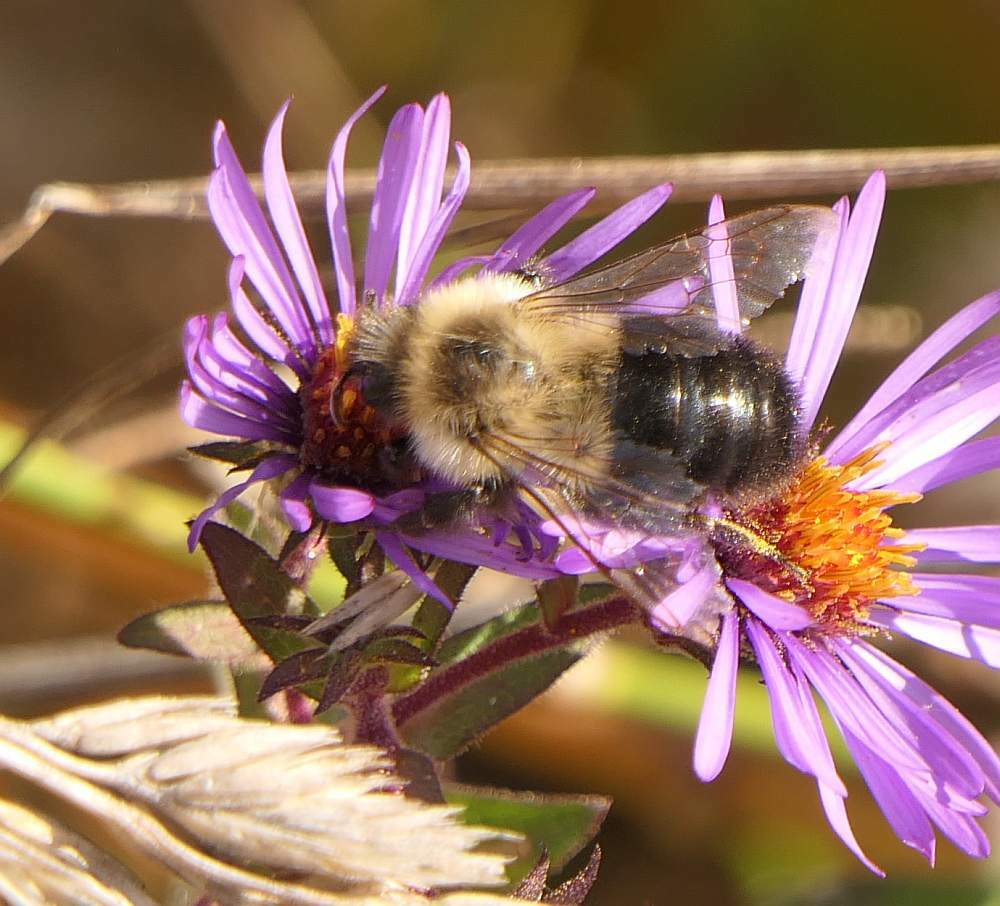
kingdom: Animalia
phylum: Arthropoda
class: Insecta
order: Hymenoptera
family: Apidae
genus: Bombus
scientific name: Bombus impatiens
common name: Common eastern bumble bee
